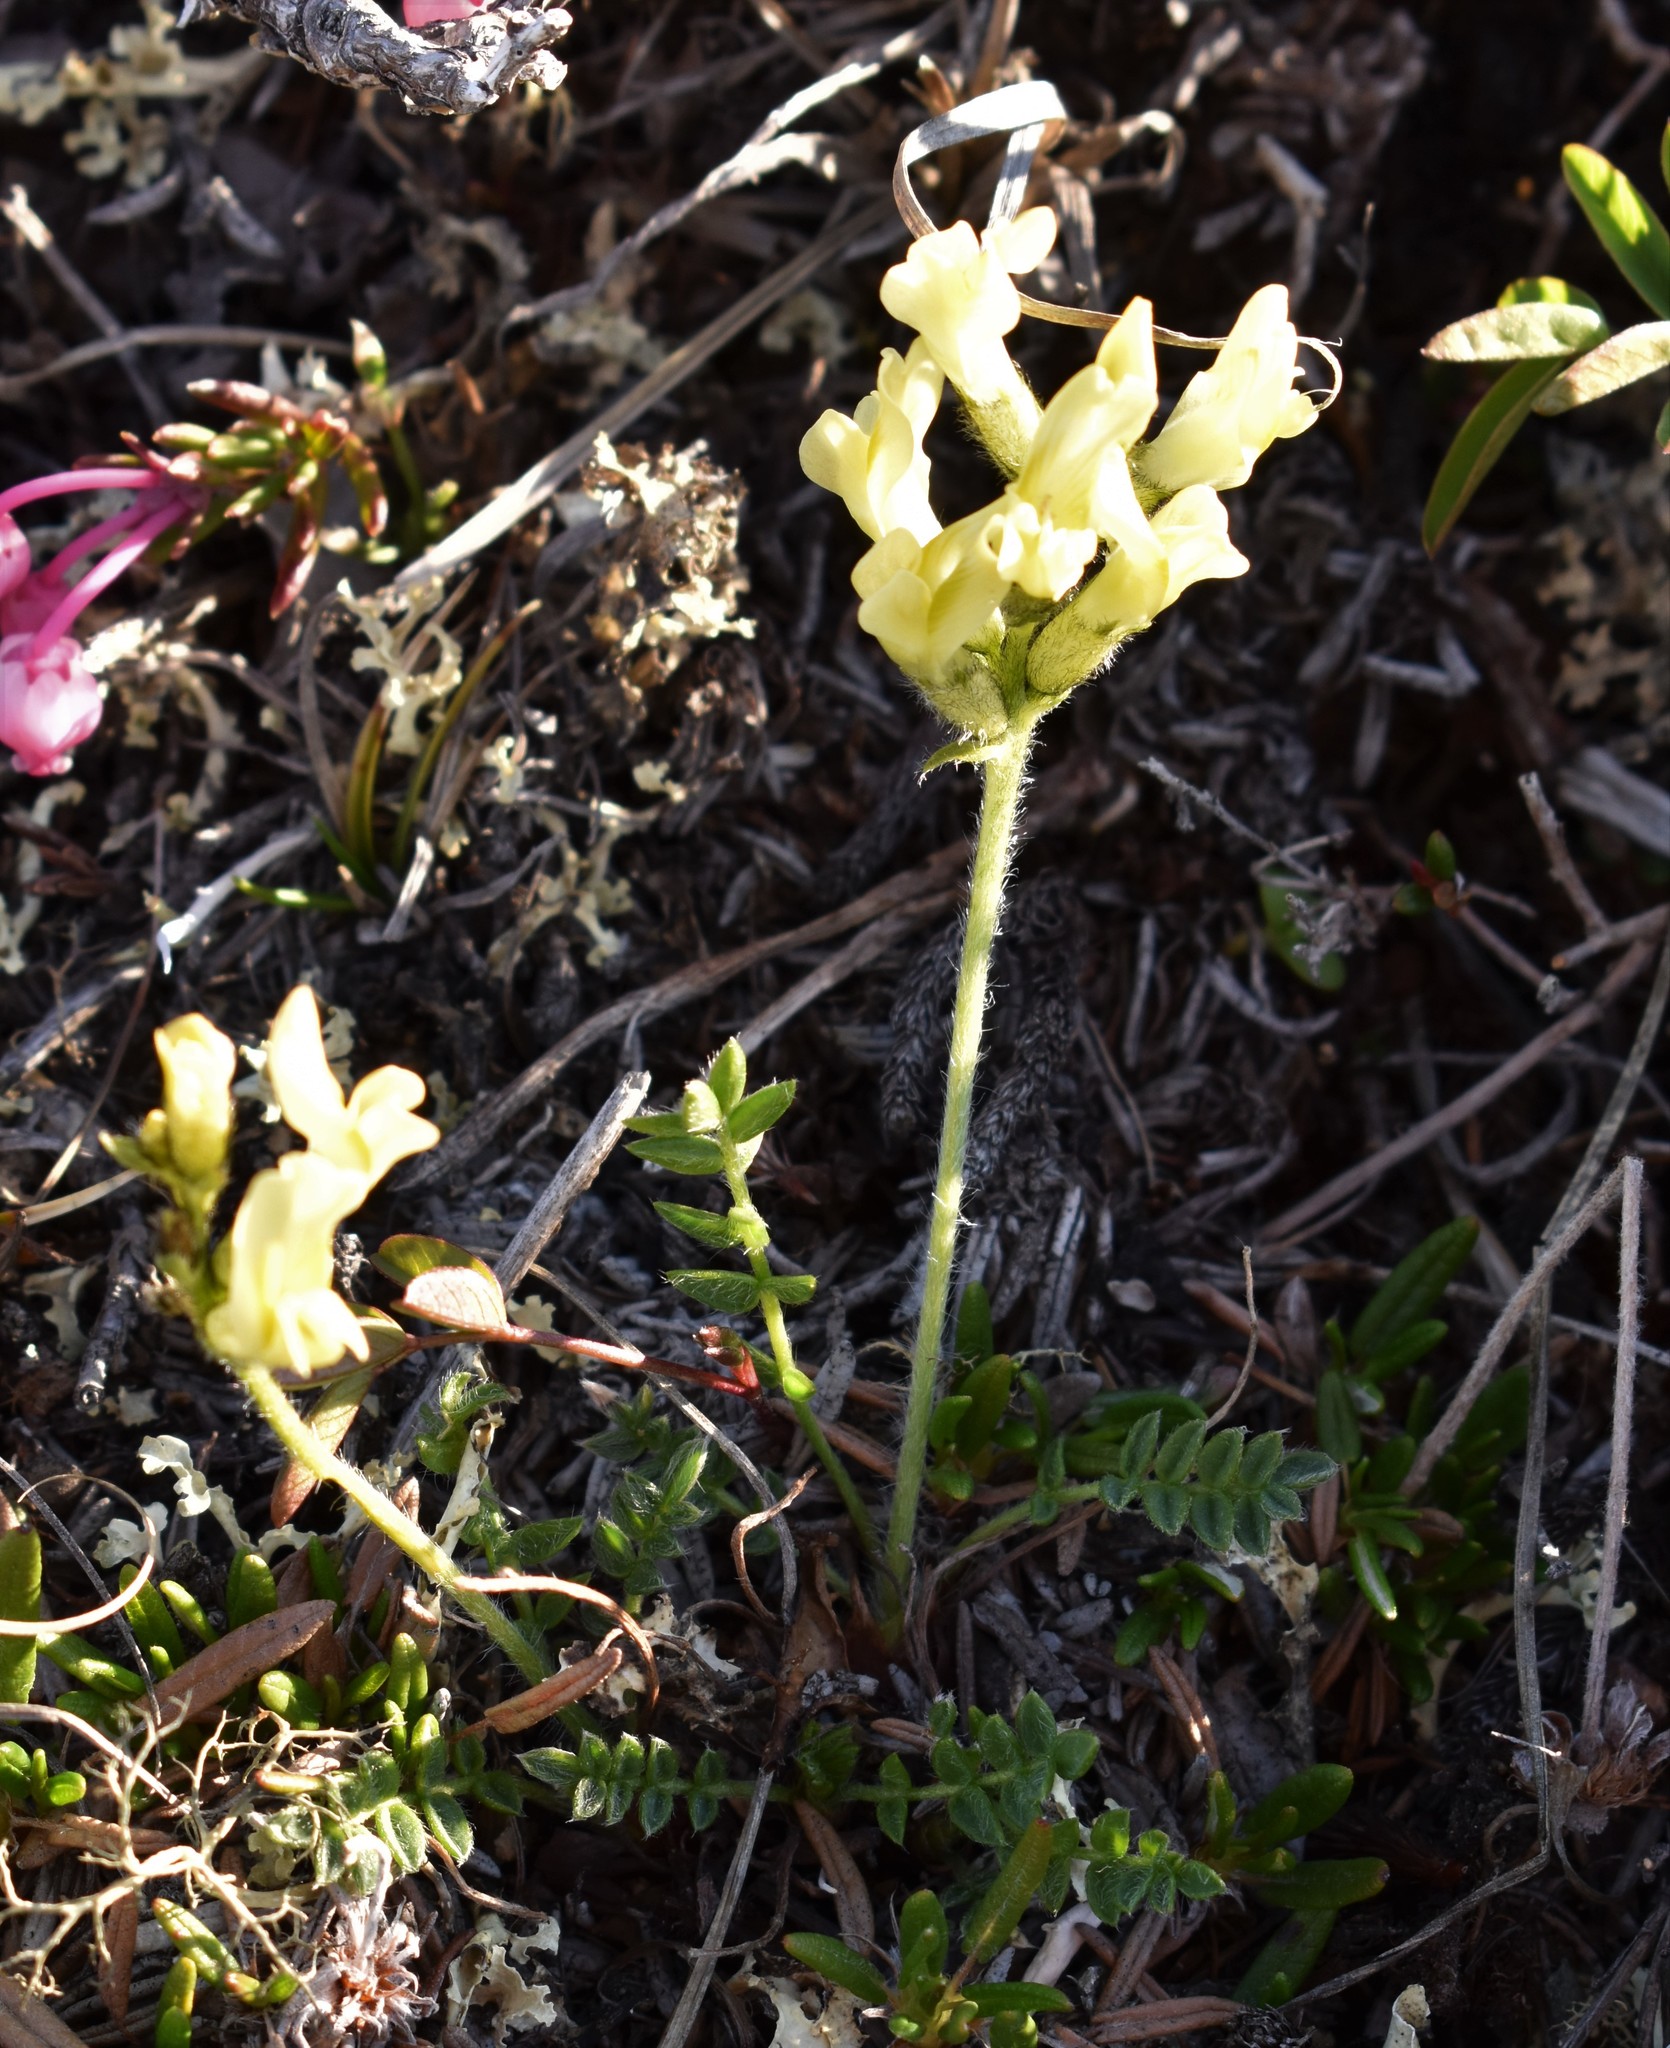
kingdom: Plantae
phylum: Tracheophyta
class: Magnoliopsida
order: Fabales
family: Fabaceae
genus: Oxytropis
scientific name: Oxytropis maydelliana
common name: Maydell's locoweed
